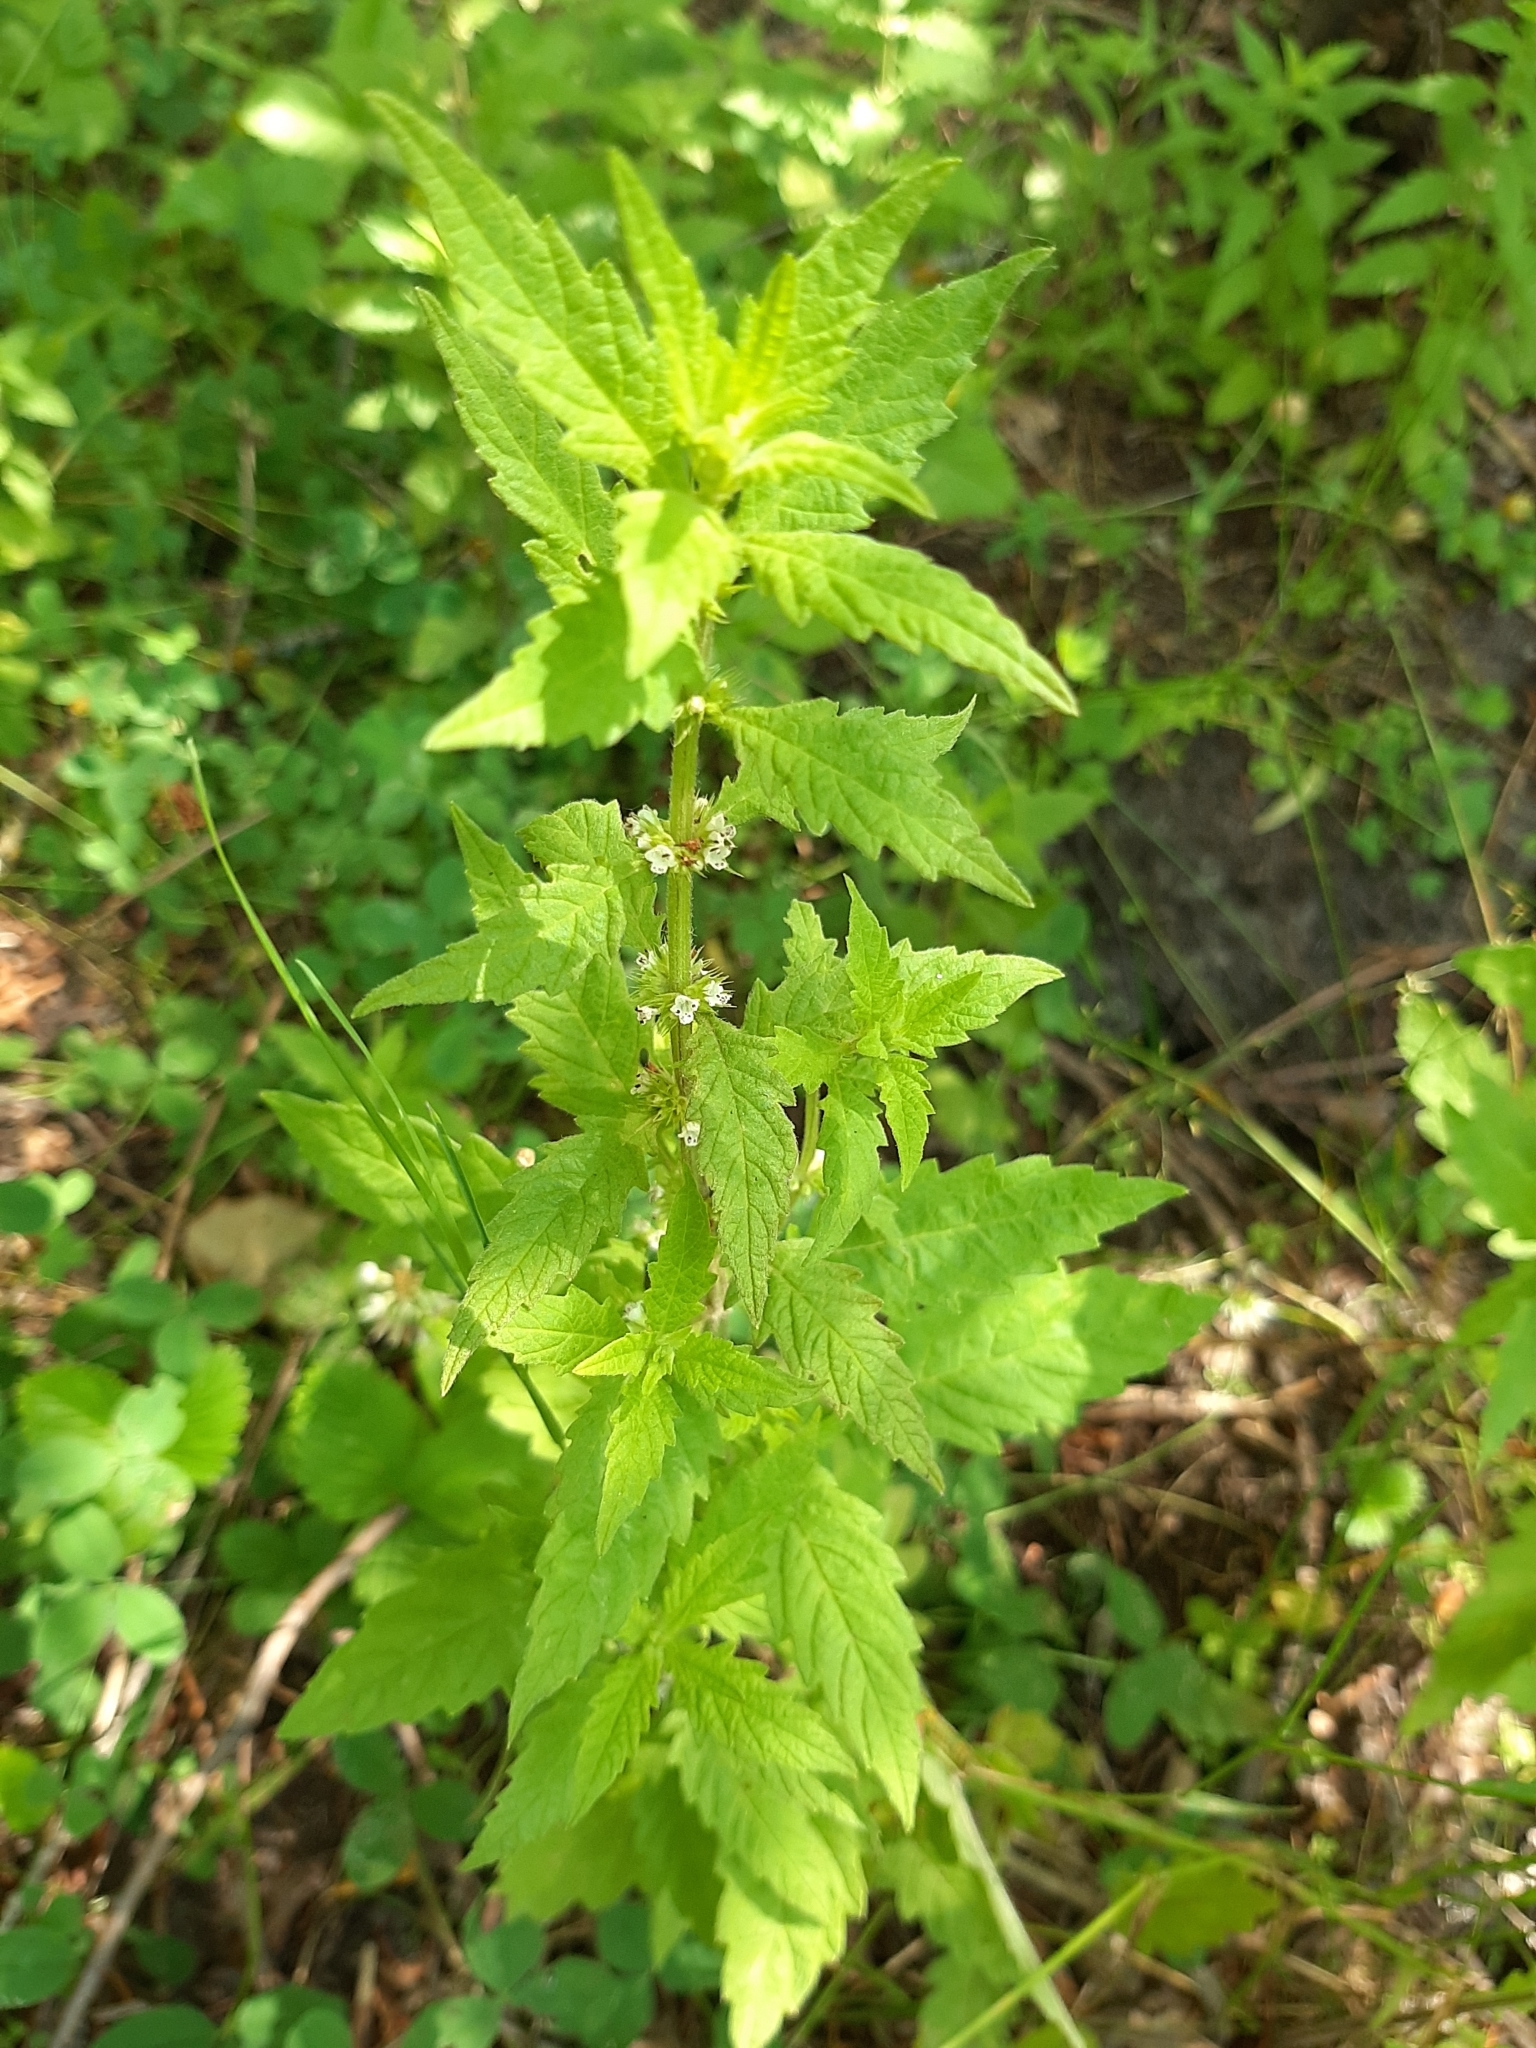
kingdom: Plantae
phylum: Tracheophyta
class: Magnoliopsida
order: Lamiales
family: Lamiaceae
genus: Lycopus
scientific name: Lycopus europaeus
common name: European bugleweed
